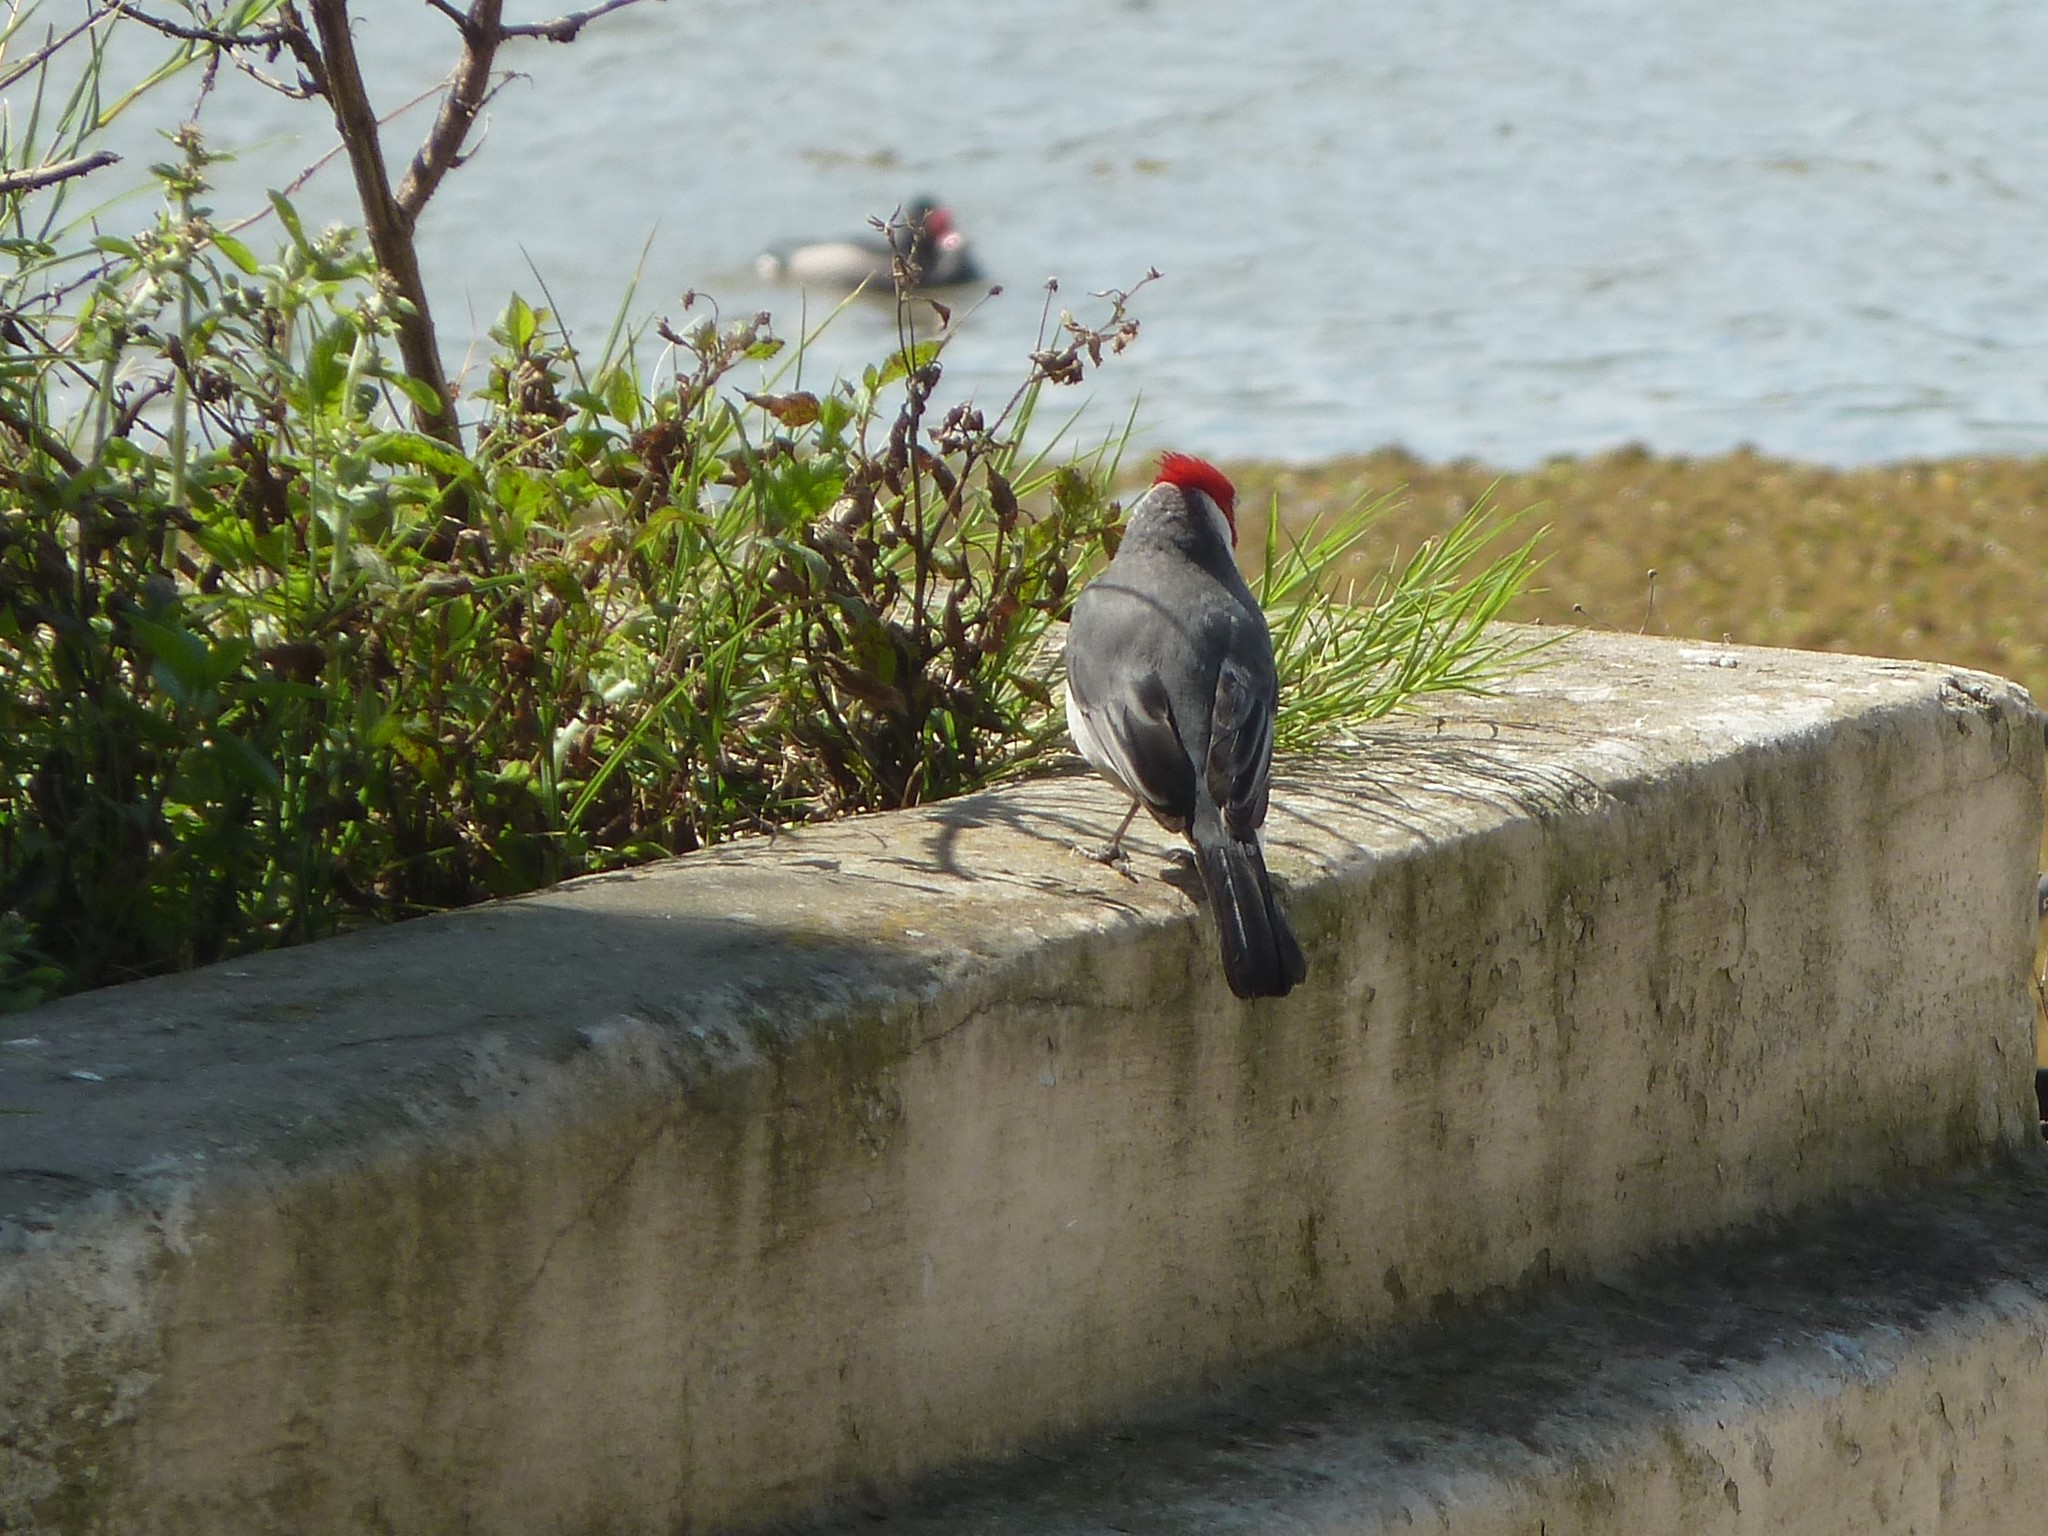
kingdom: Animalia
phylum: Chordata
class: Aves
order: Passeriformes
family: Thraupidae
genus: Paroaria
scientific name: Paroaria coronata
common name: Red-crested cardinal
